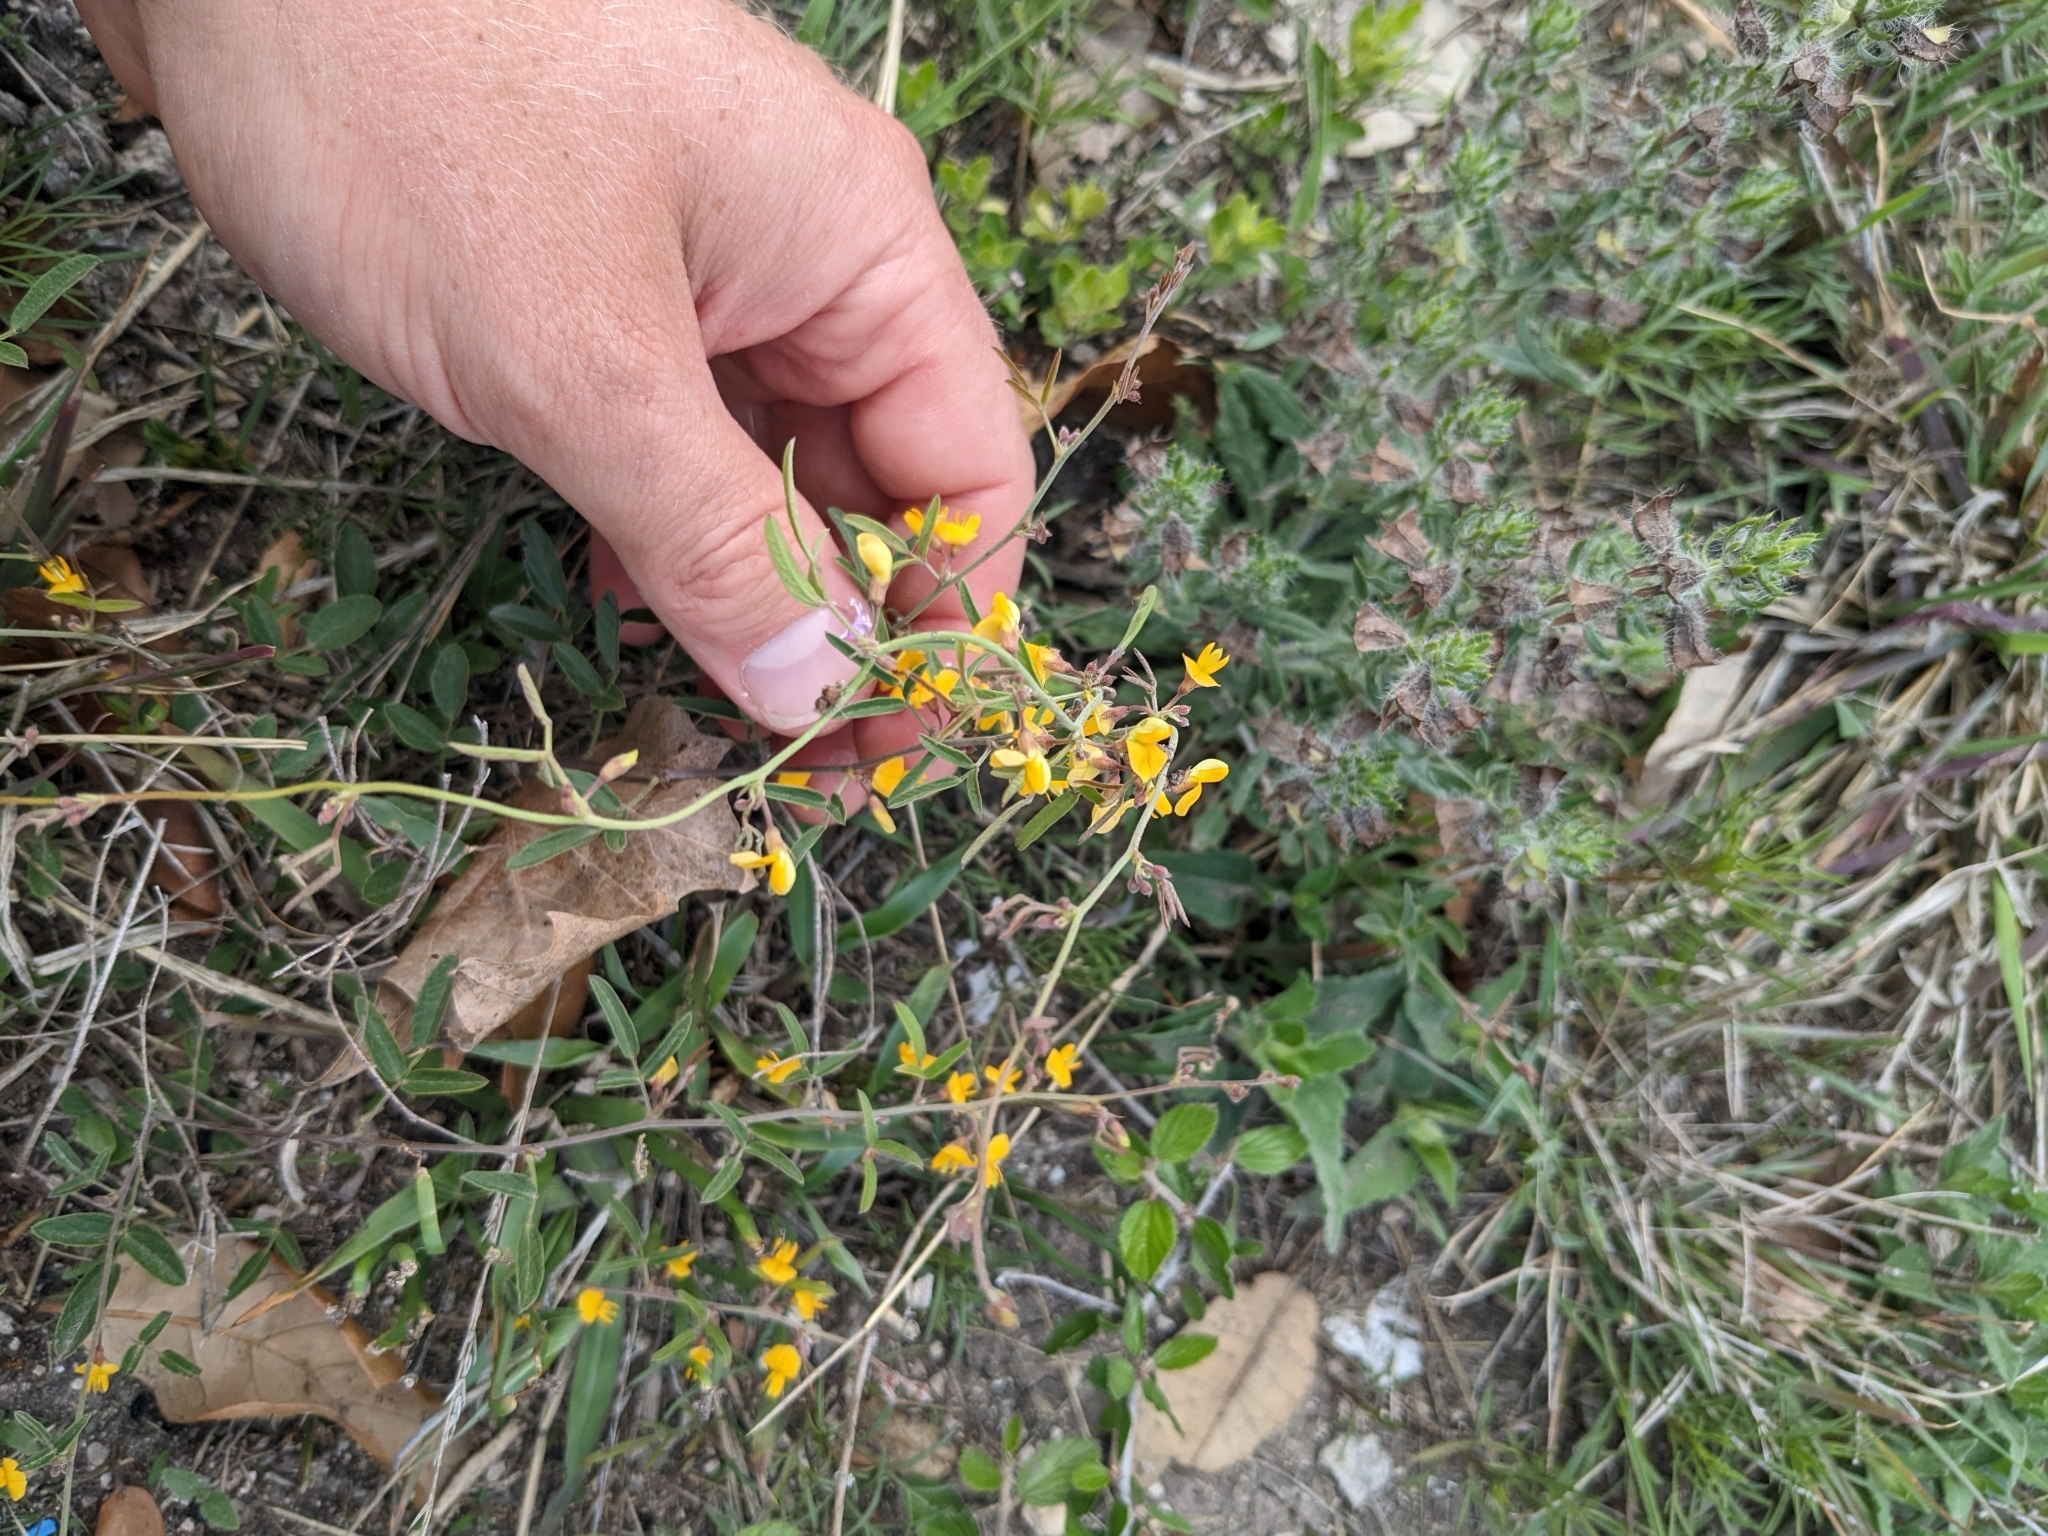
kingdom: Plantae
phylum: Tracheophyta
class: Magnoliopsida
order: Fabales
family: Fabaceae
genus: Rhynchosia
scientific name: Rhynchosia senna
